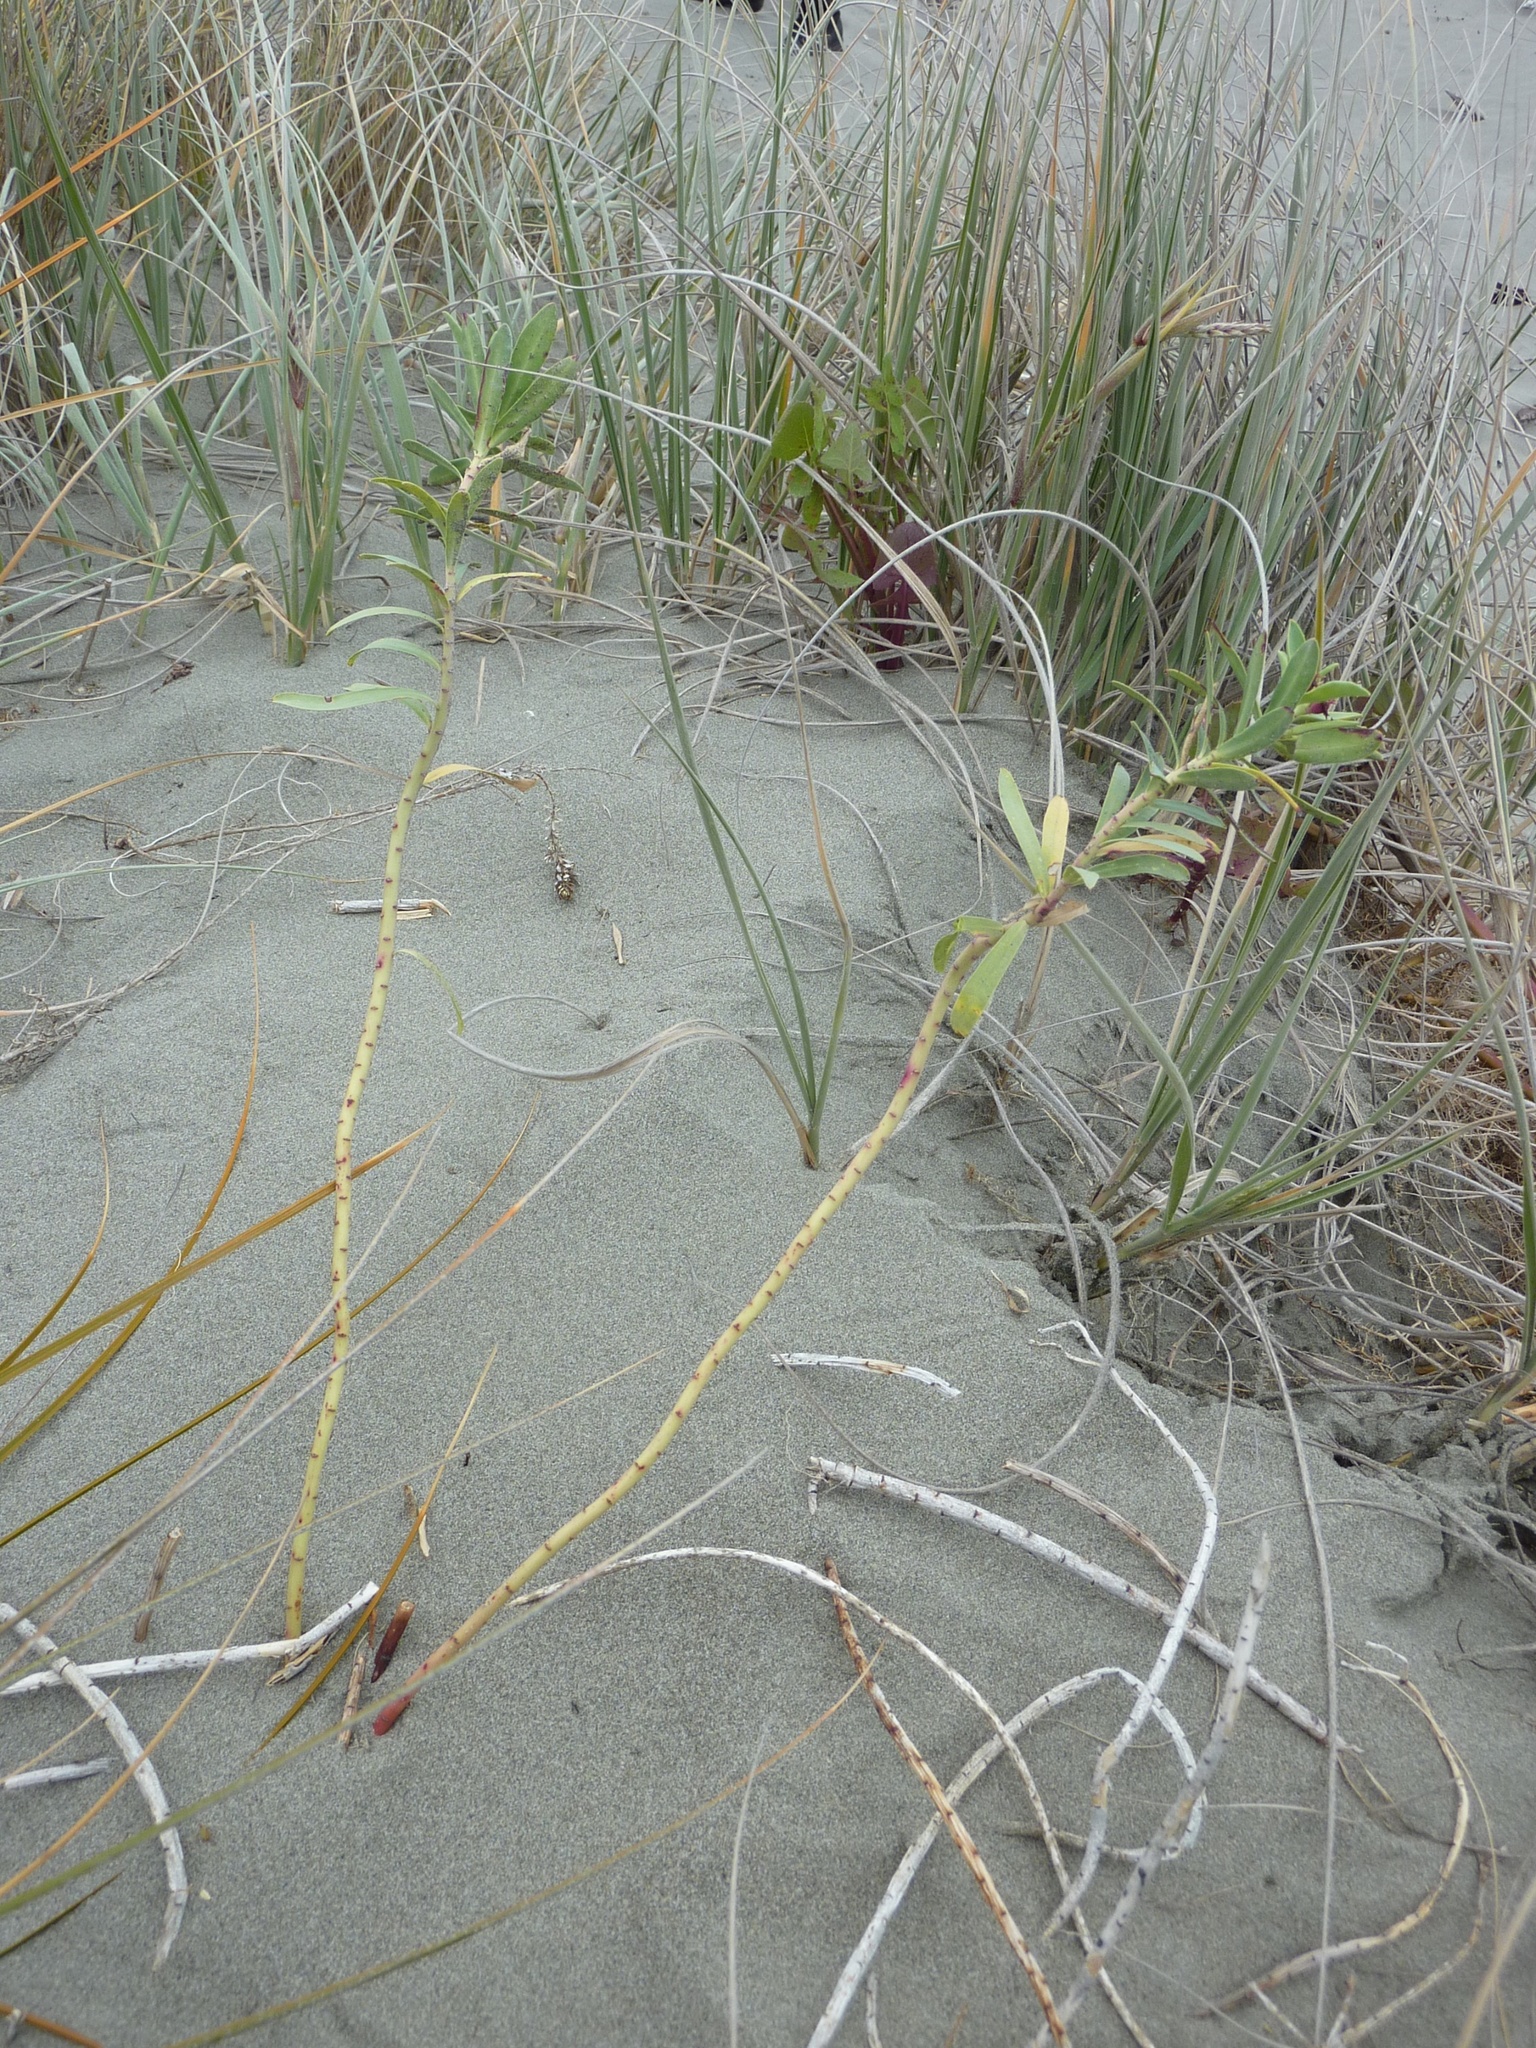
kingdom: Plantae
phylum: Tracheophyta
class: Magnoliopsida
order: Malpighiales
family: Euphorbiaceae
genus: Euphorbia
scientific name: Euphorbia glauca
